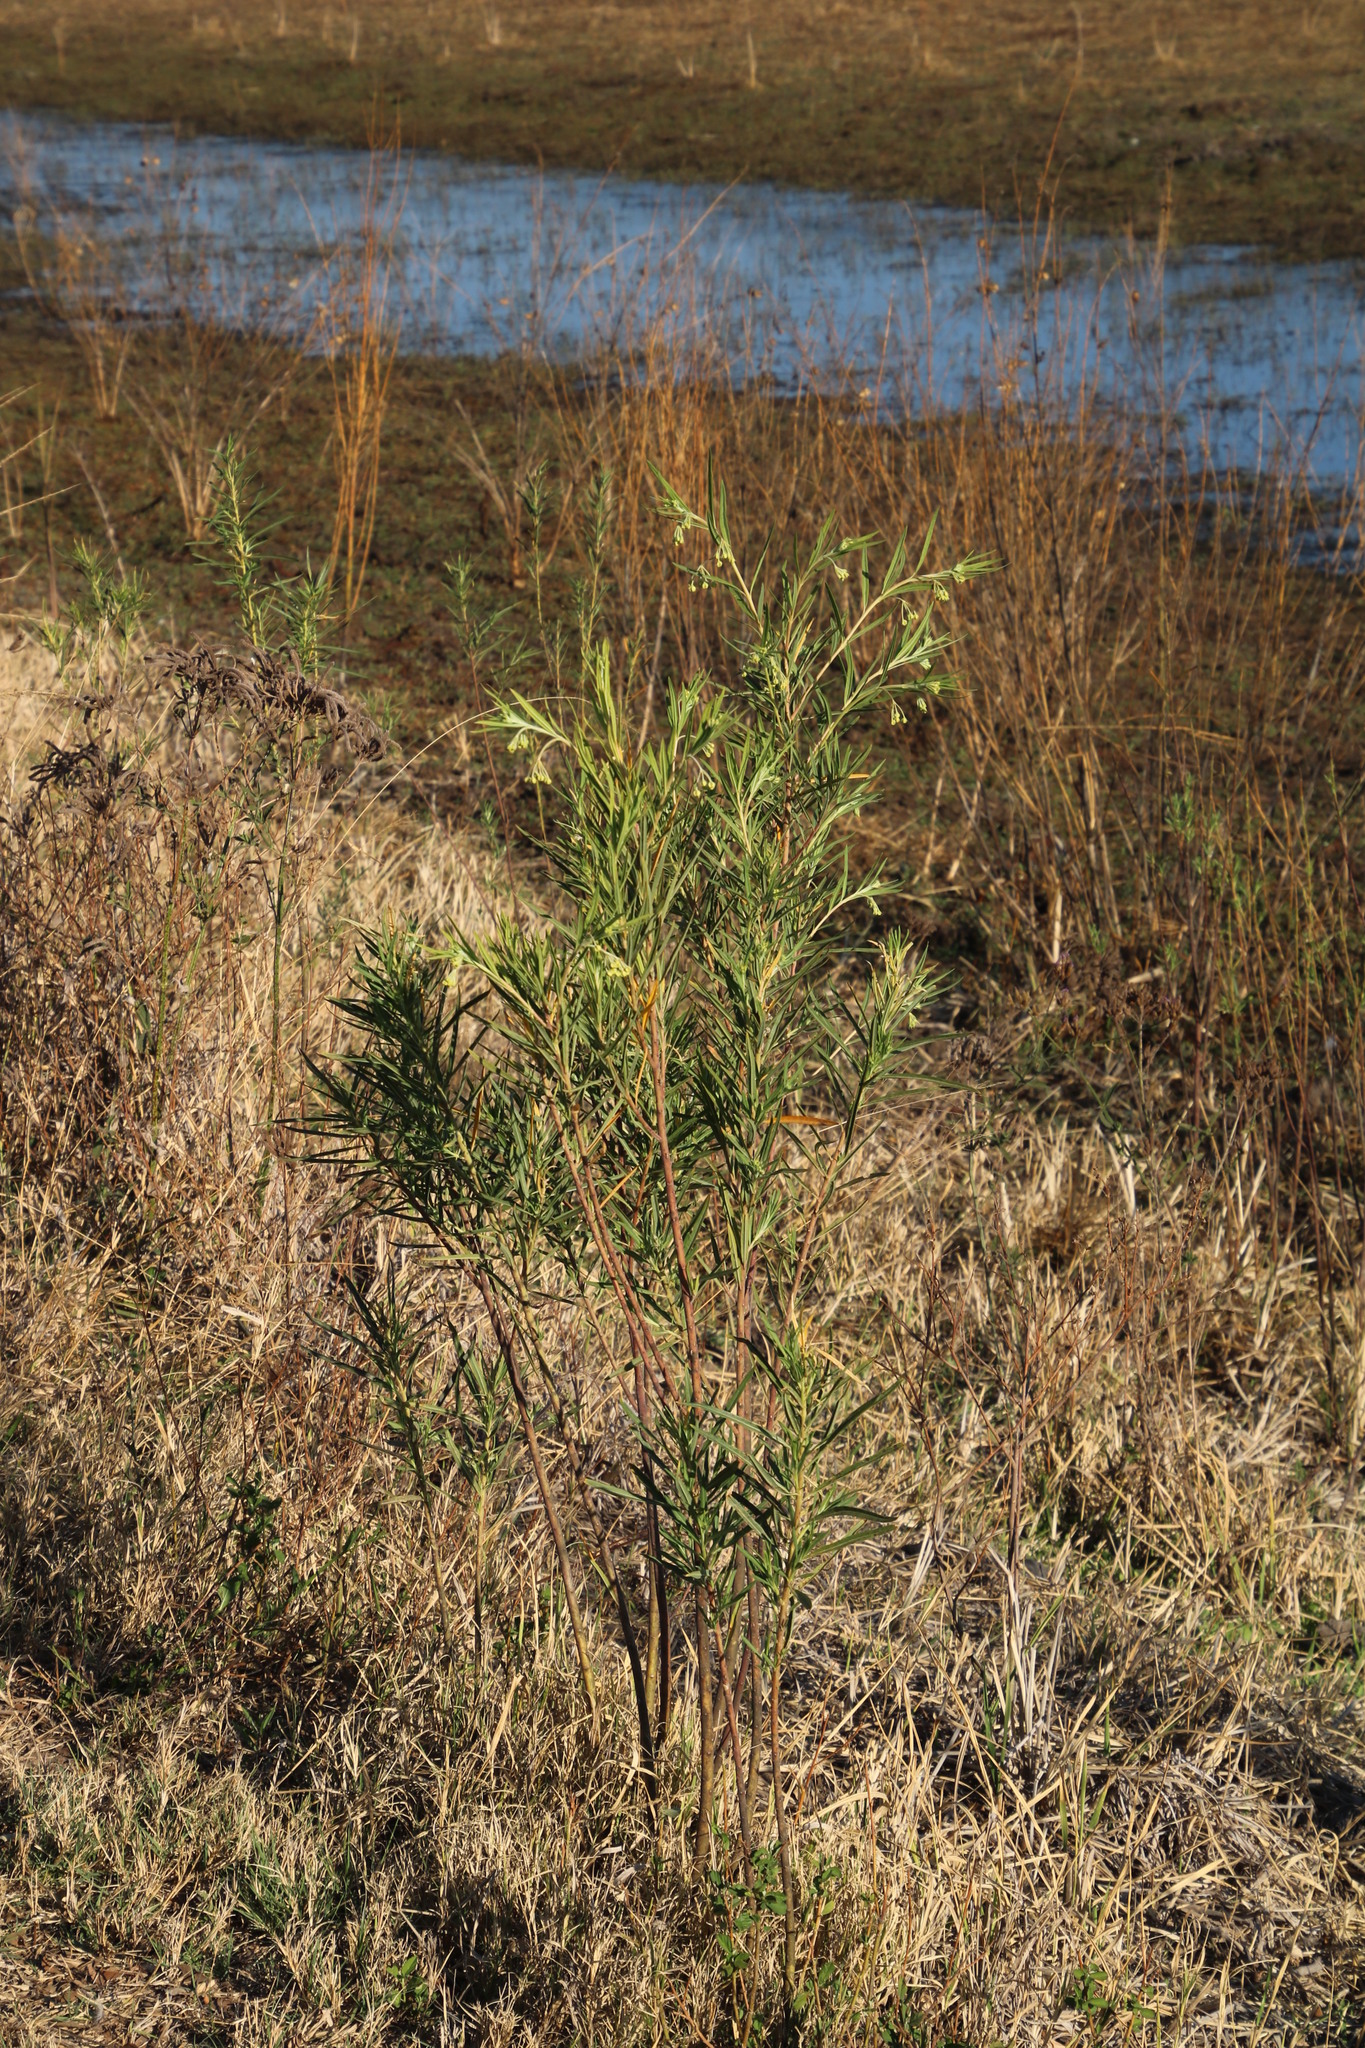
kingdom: Plantae
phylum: Tracheophyta
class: Magnoliopsida
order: Gentianales
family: Apocynaceae
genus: Gomphocarpus
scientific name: Gomphocarpus fruticosus
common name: Milkweed
